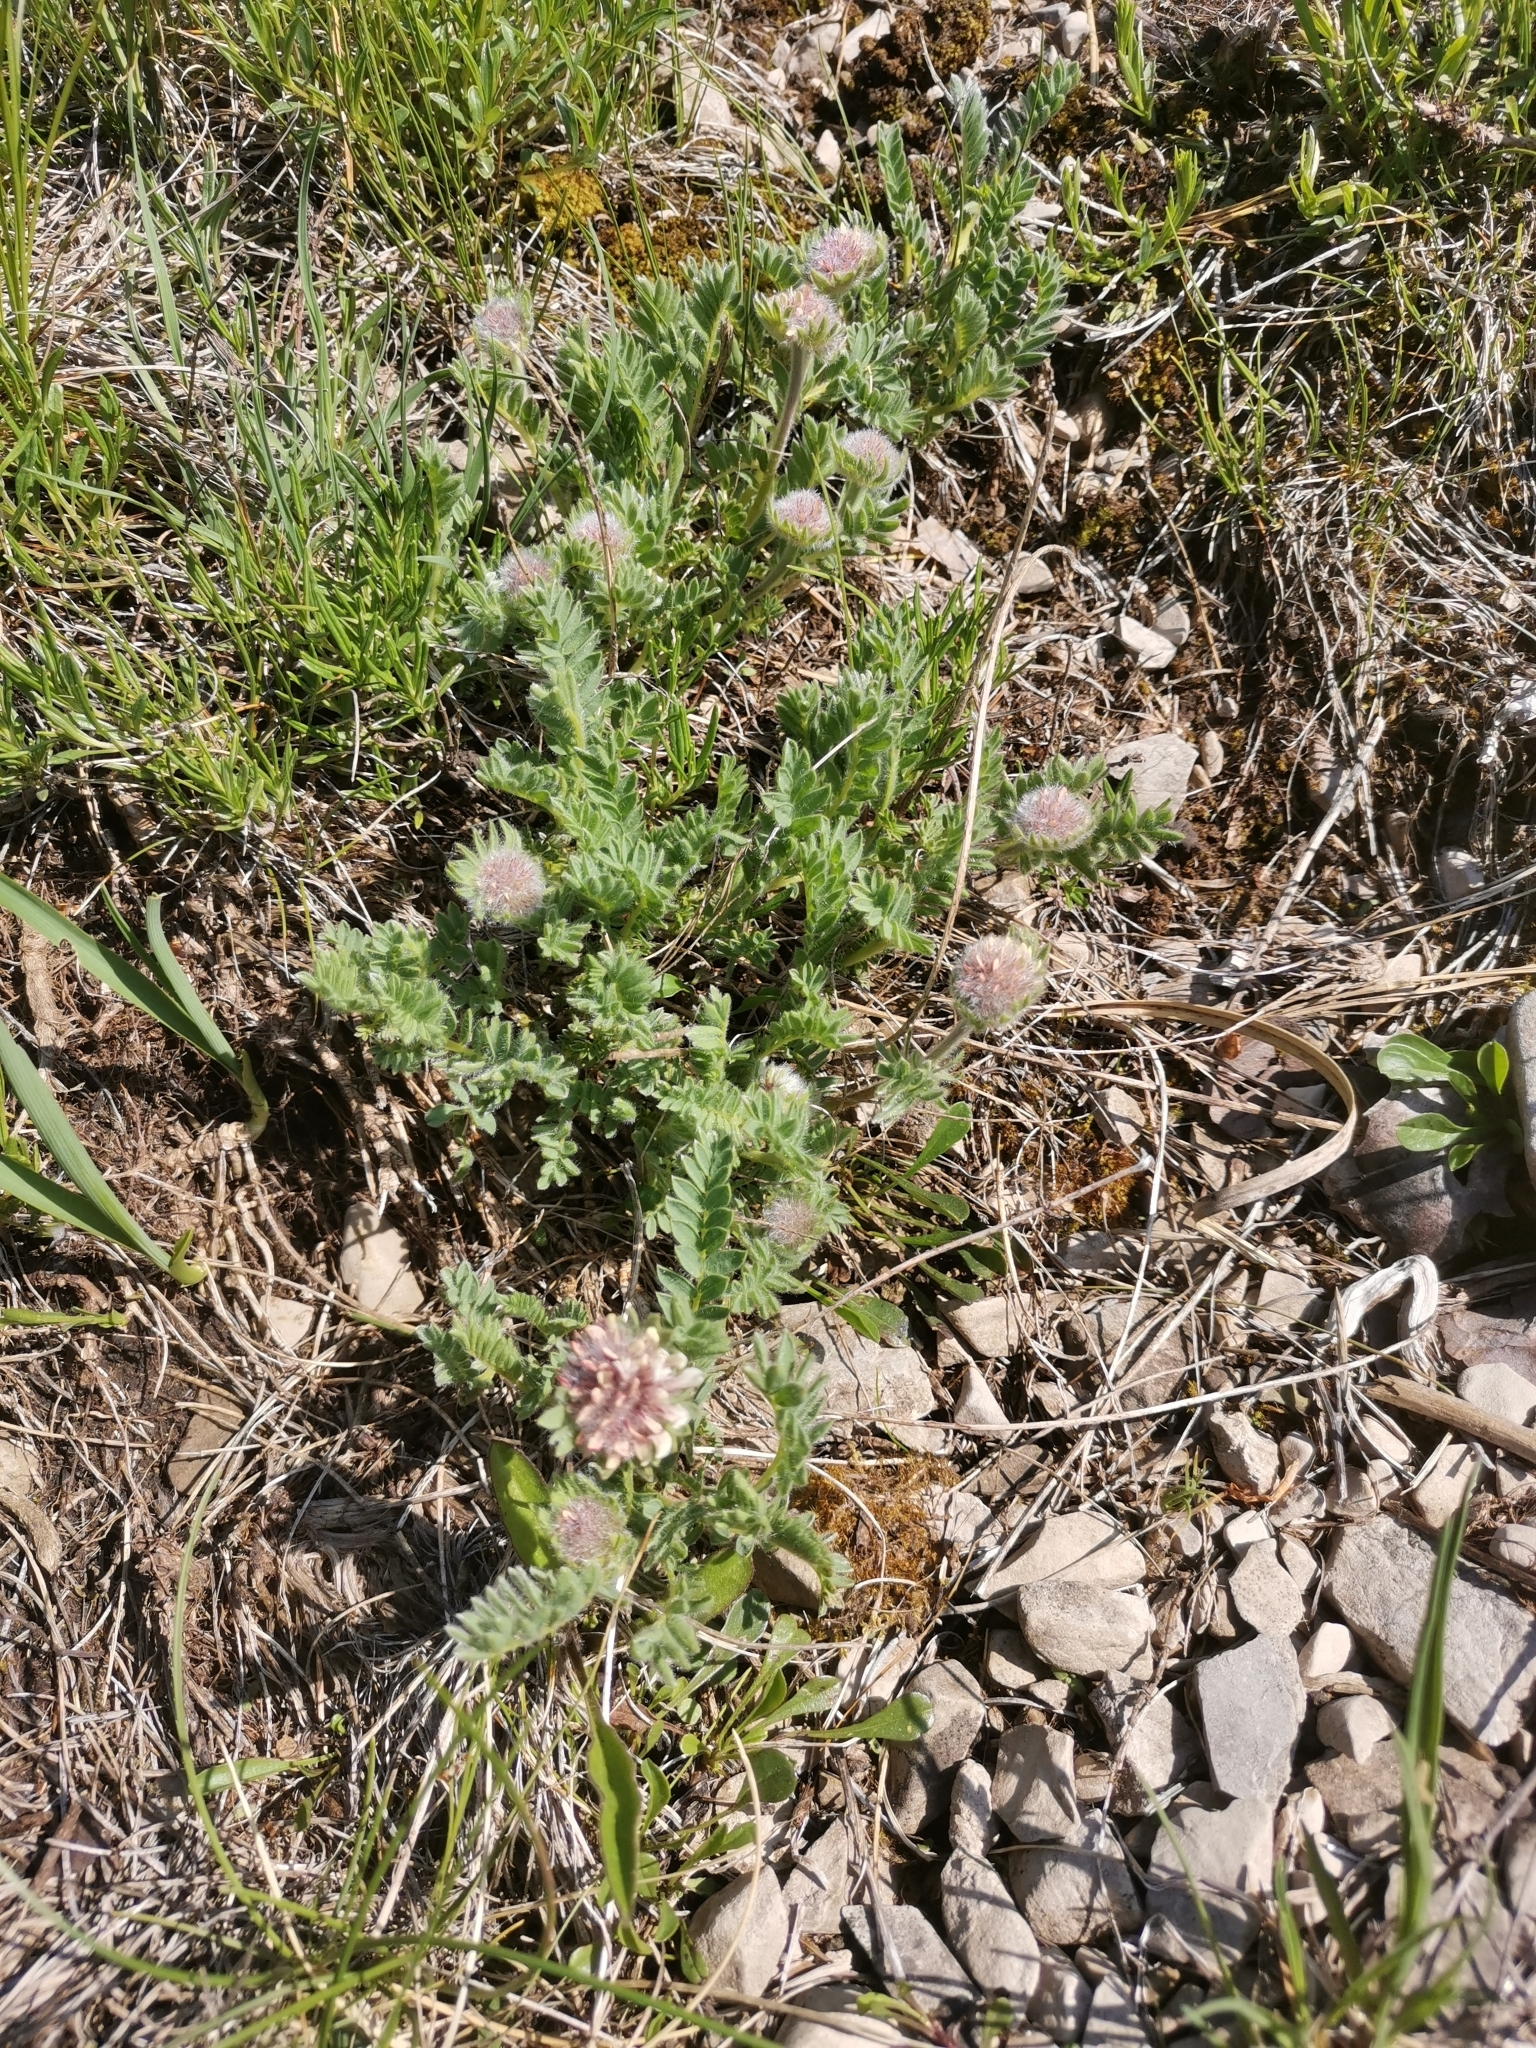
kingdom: Plantae
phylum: Tracheophyta
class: Magnoliopsida
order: Fabales
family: Fabaceae
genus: Anthyllis
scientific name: Anthyllis montana
